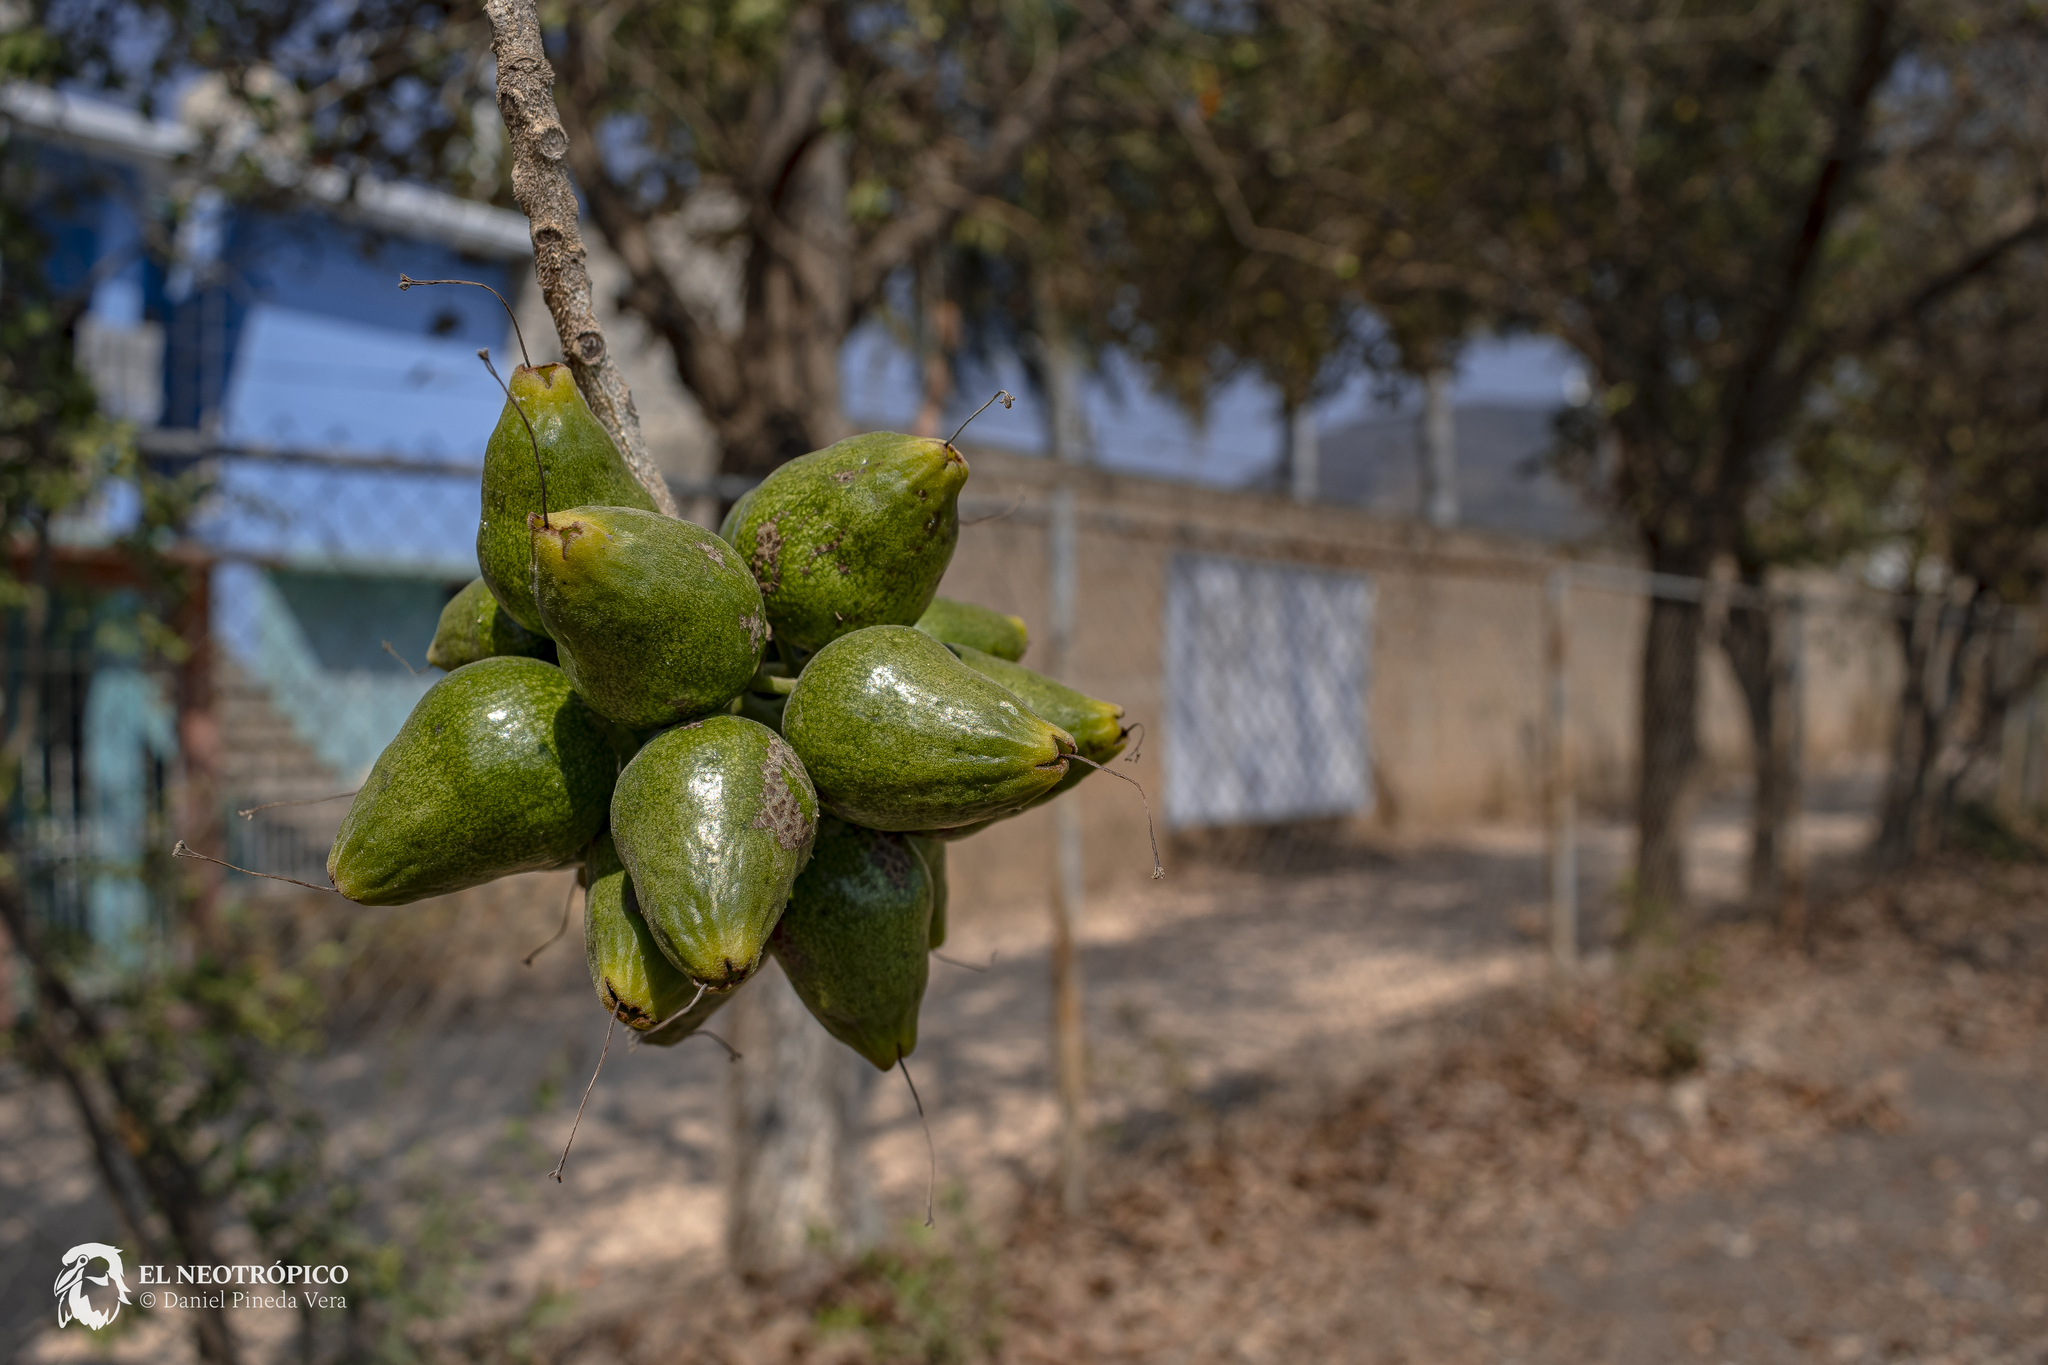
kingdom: Plantae
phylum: Tracheophyta
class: Magnoliopsida
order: Boraginales
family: Cordiaceae
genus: Cordia
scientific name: Cordia dodecandra
